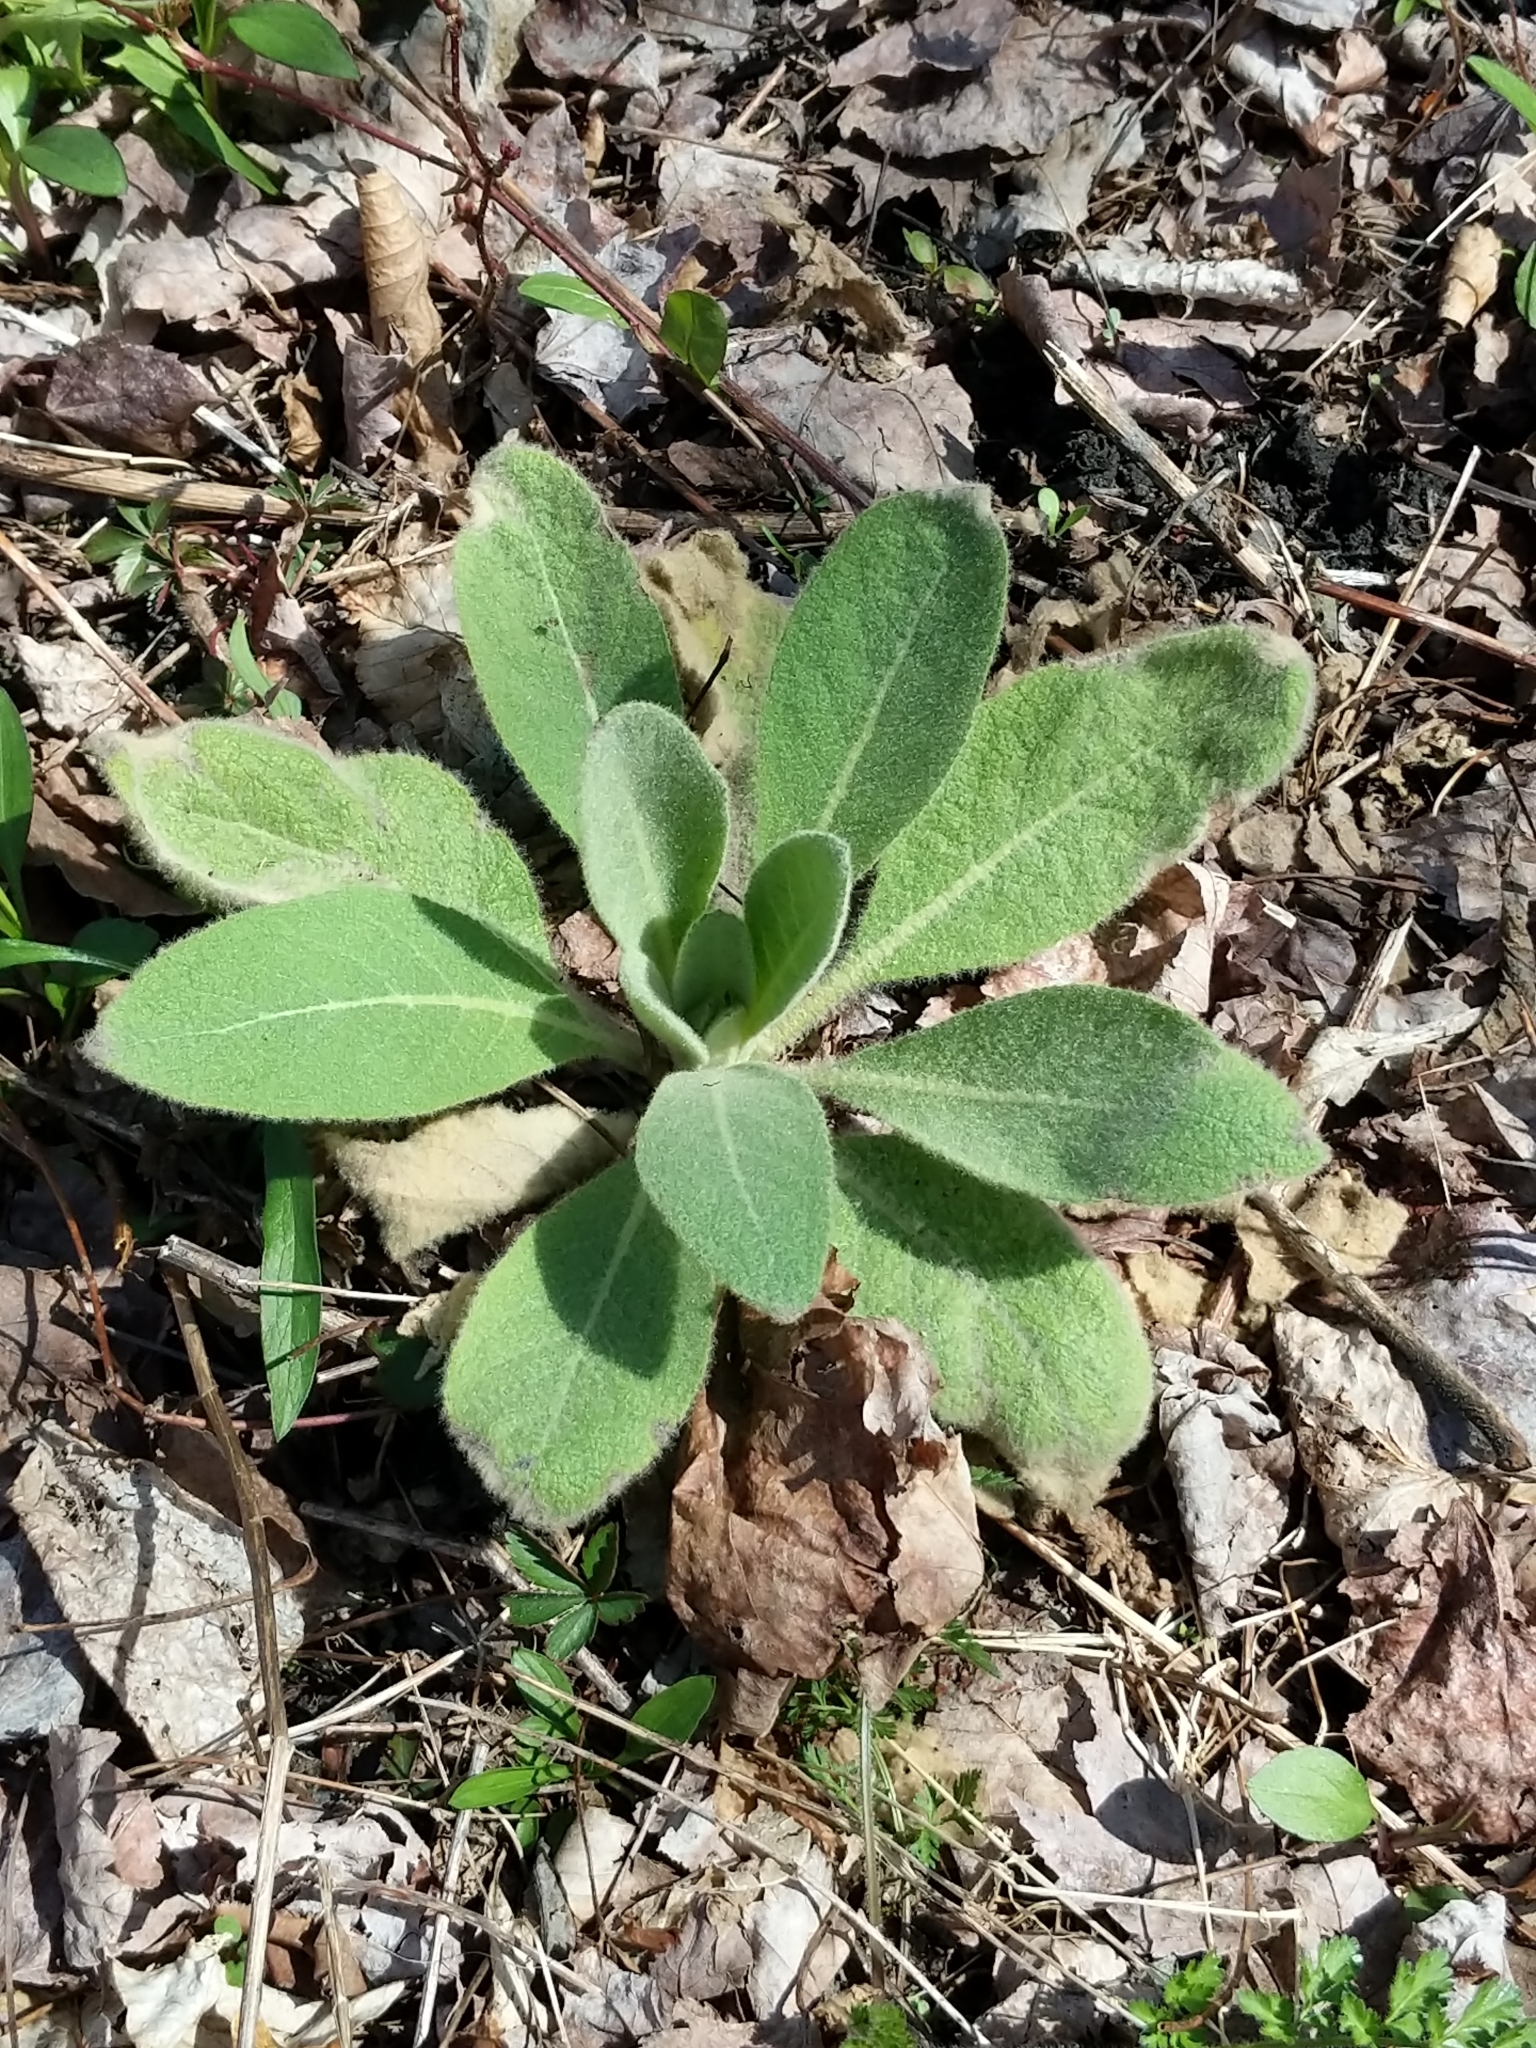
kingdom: Plantae
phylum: Tracheophyta
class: Magnoliopsida
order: Lamiales
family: Scrophulariaceae
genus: Verbascum
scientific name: Verbascum thapsus
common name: Common mullein
